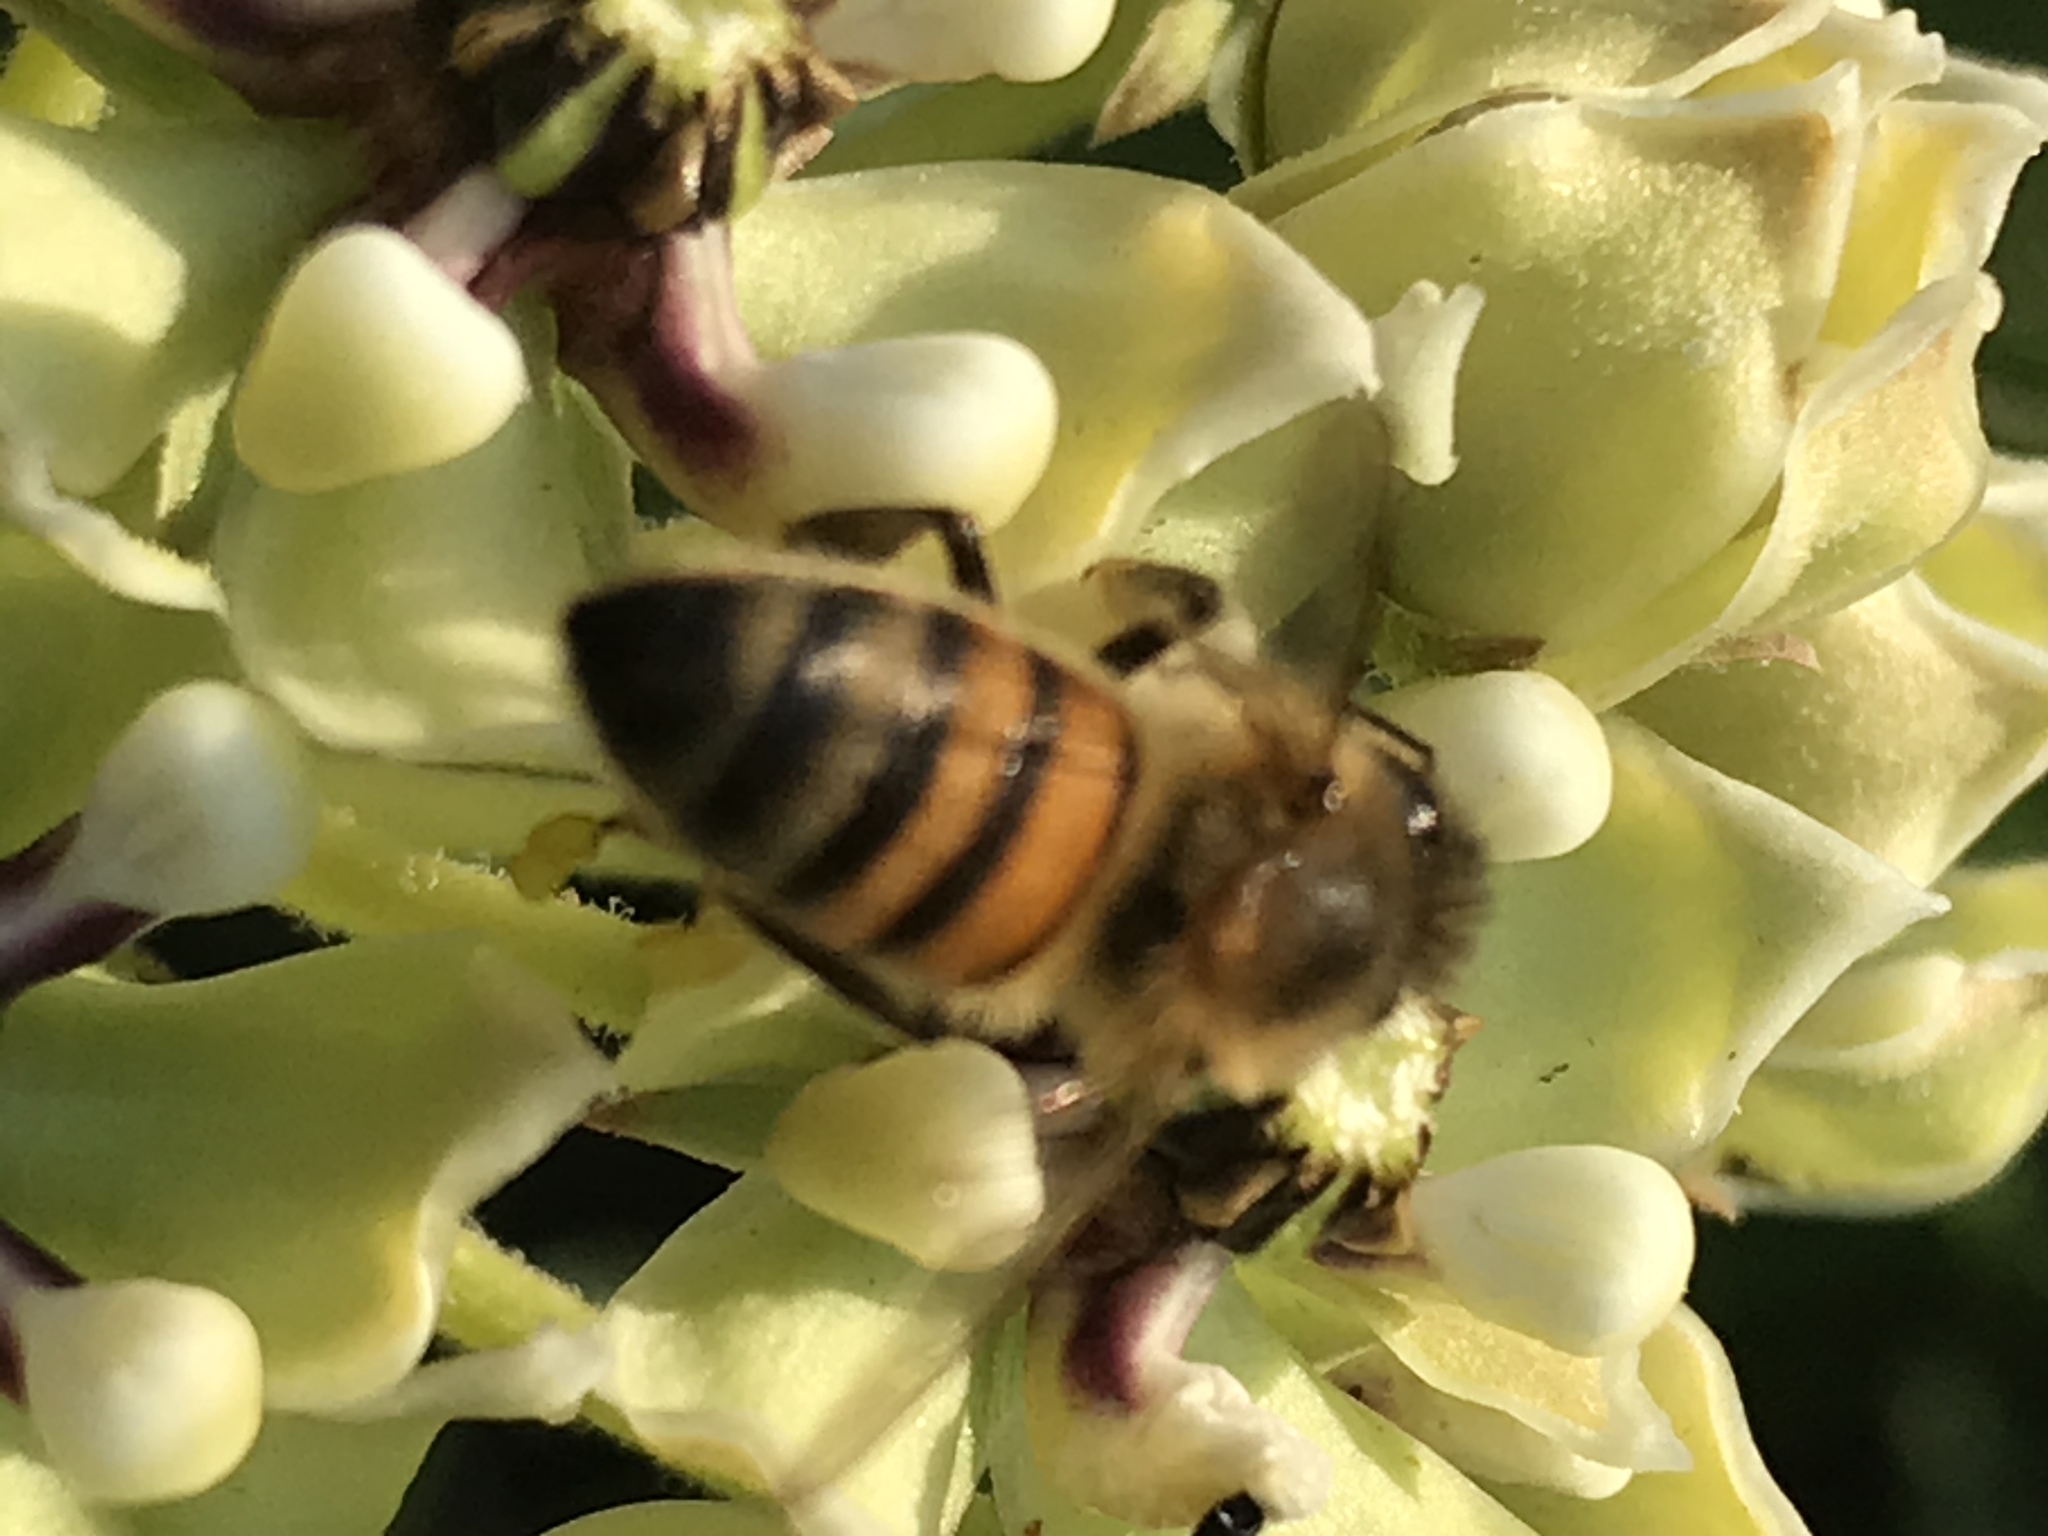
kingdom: Animalia
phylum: Arthropoda
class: Insecta
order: Hymenoptera
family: Apidae
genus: Apis
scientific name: Apis mellifera
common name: Honey bee
